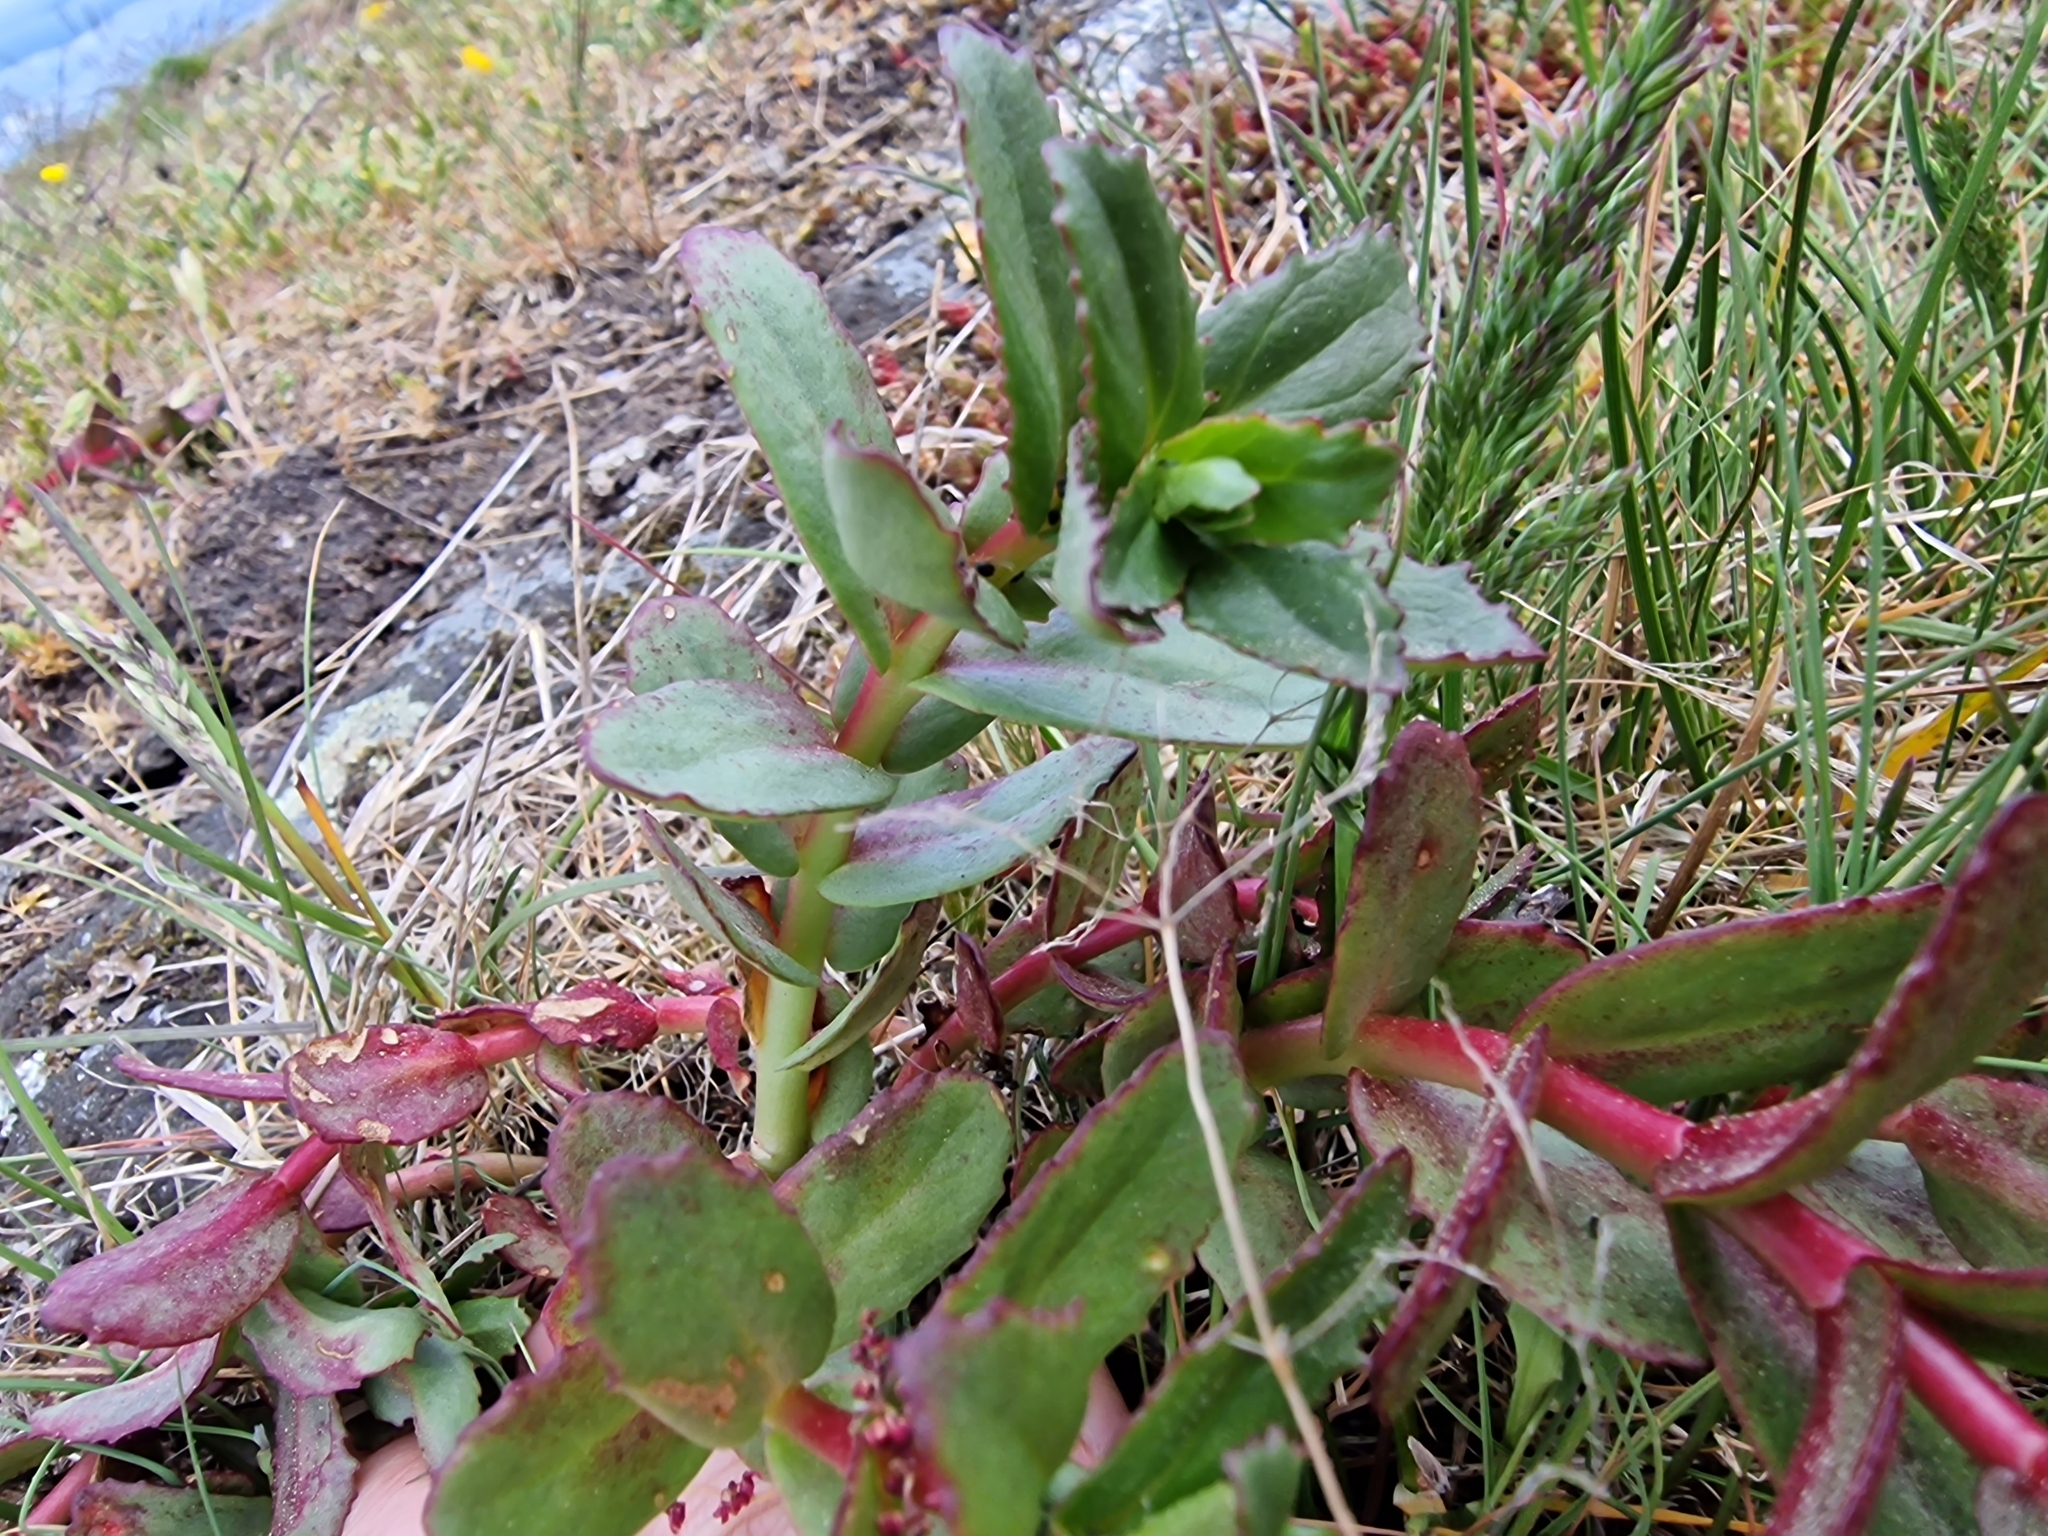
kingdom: Plantae
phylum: Tracheophyta
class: Magnoliopsida
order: Saxifragales
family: Crassulaceae
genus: Hylotelephium
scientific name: Hylotelephium maximum
